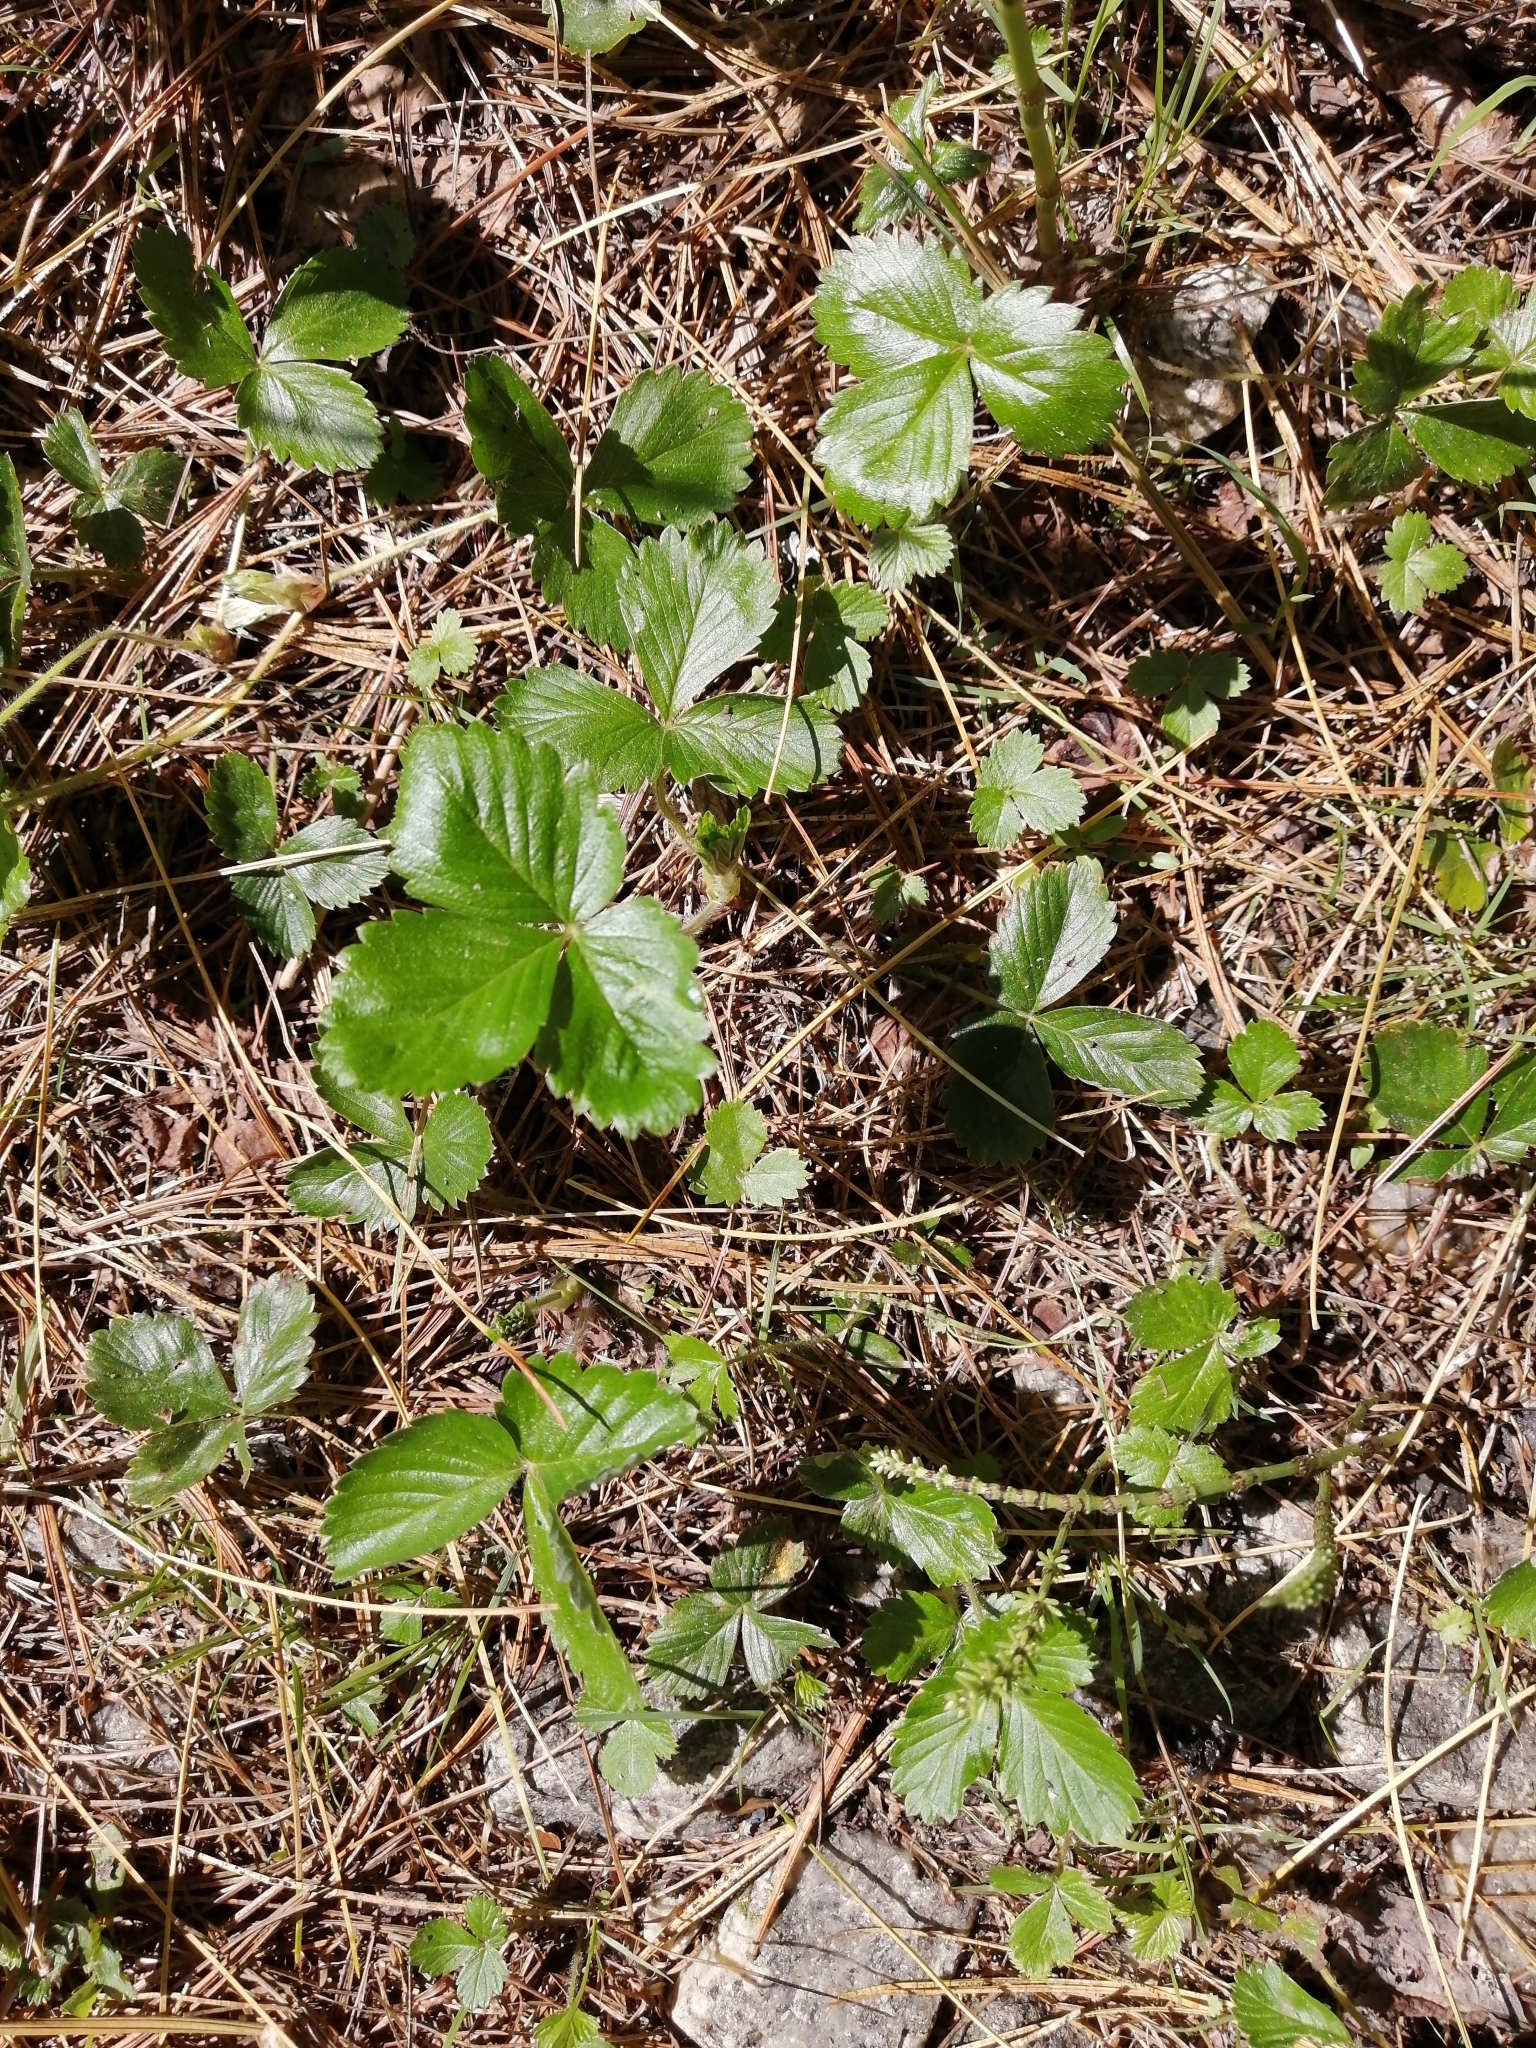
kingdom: Plantae
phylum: Tracheophyta
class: Magnoliopsida
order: Rosales
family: Rosaceae
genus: Fragaria
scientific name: Fragaria vesca
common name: Wild strawberry
